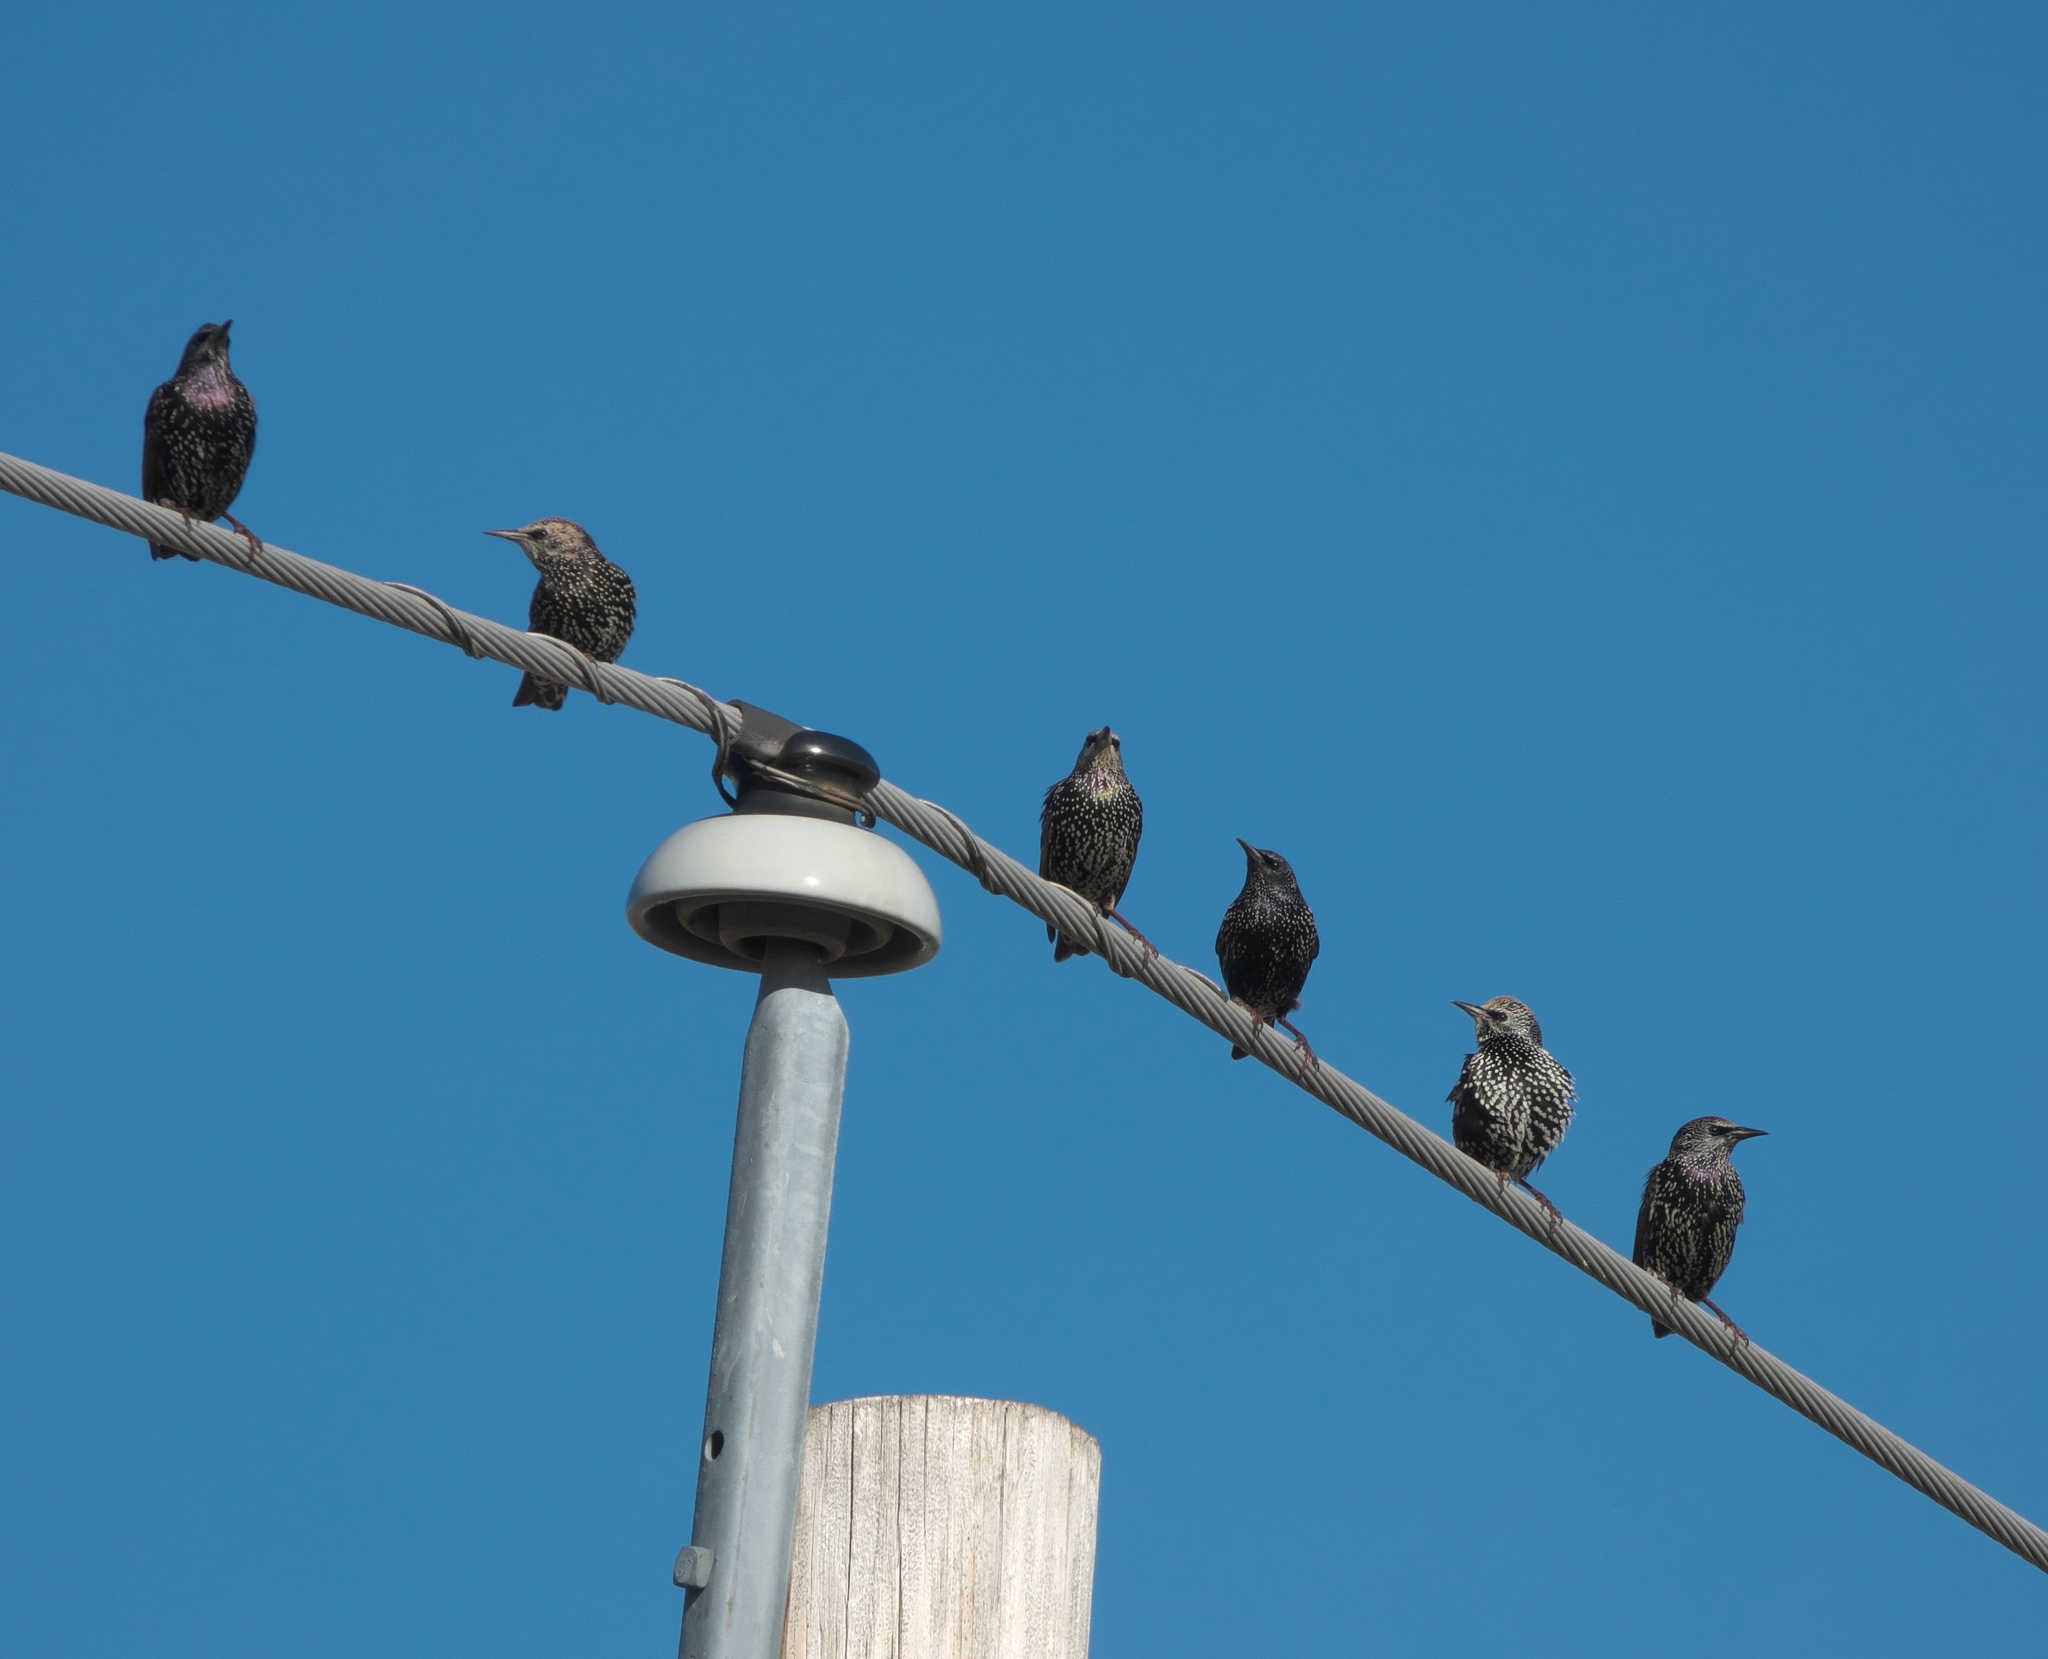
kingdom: Animalia
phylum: Chordata
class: Aves
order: Passeriformes
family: Sturnidae
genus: Sturnus
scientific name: Sturnus vulgaris
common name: Common starling
